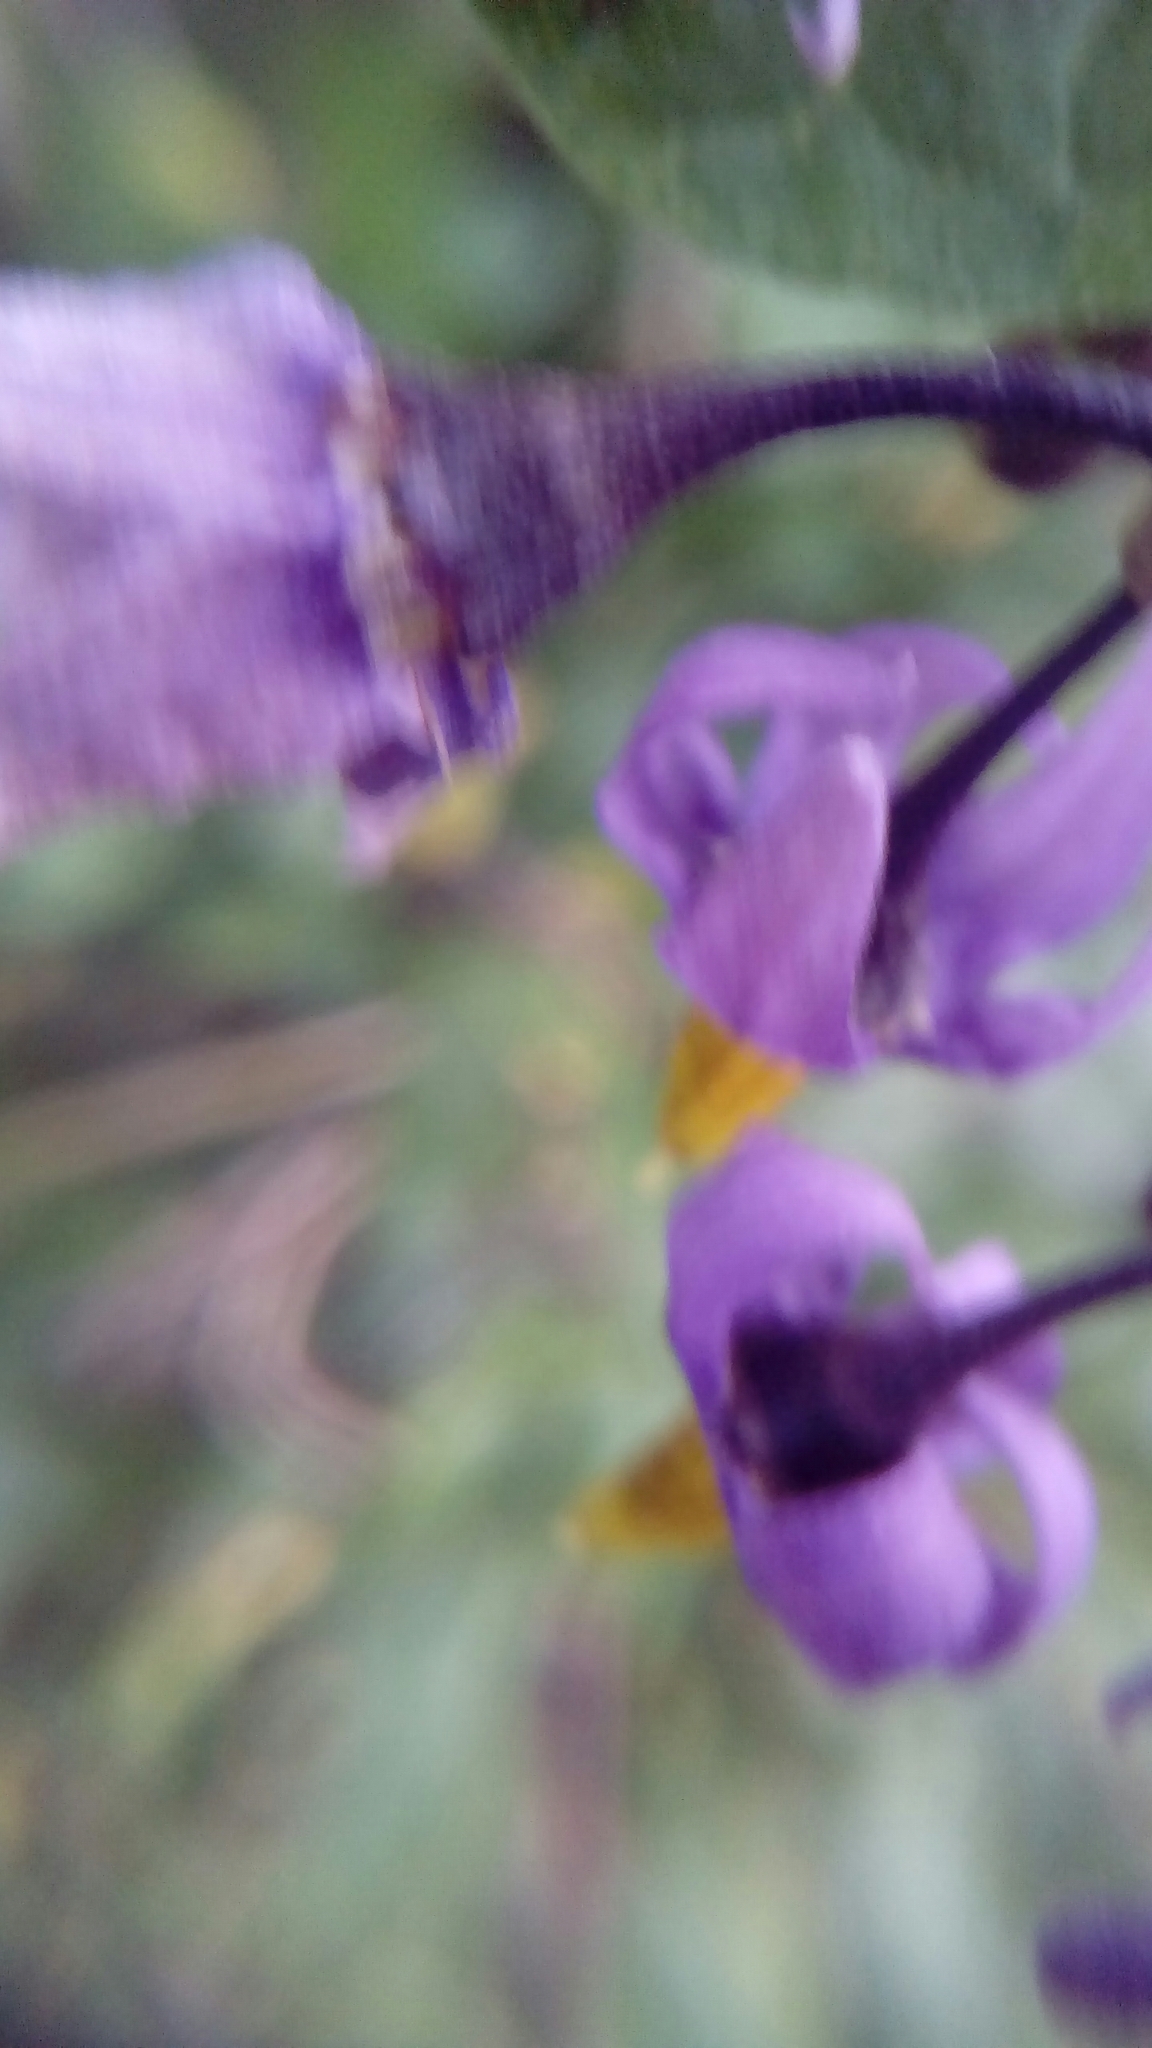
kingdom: Plantae
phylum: Tracheophyta
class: Magnoliopsida
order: Solanales
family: Solanaceae
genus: Solanum
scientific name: Solanum dulcamara
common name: Climbing nightshade
